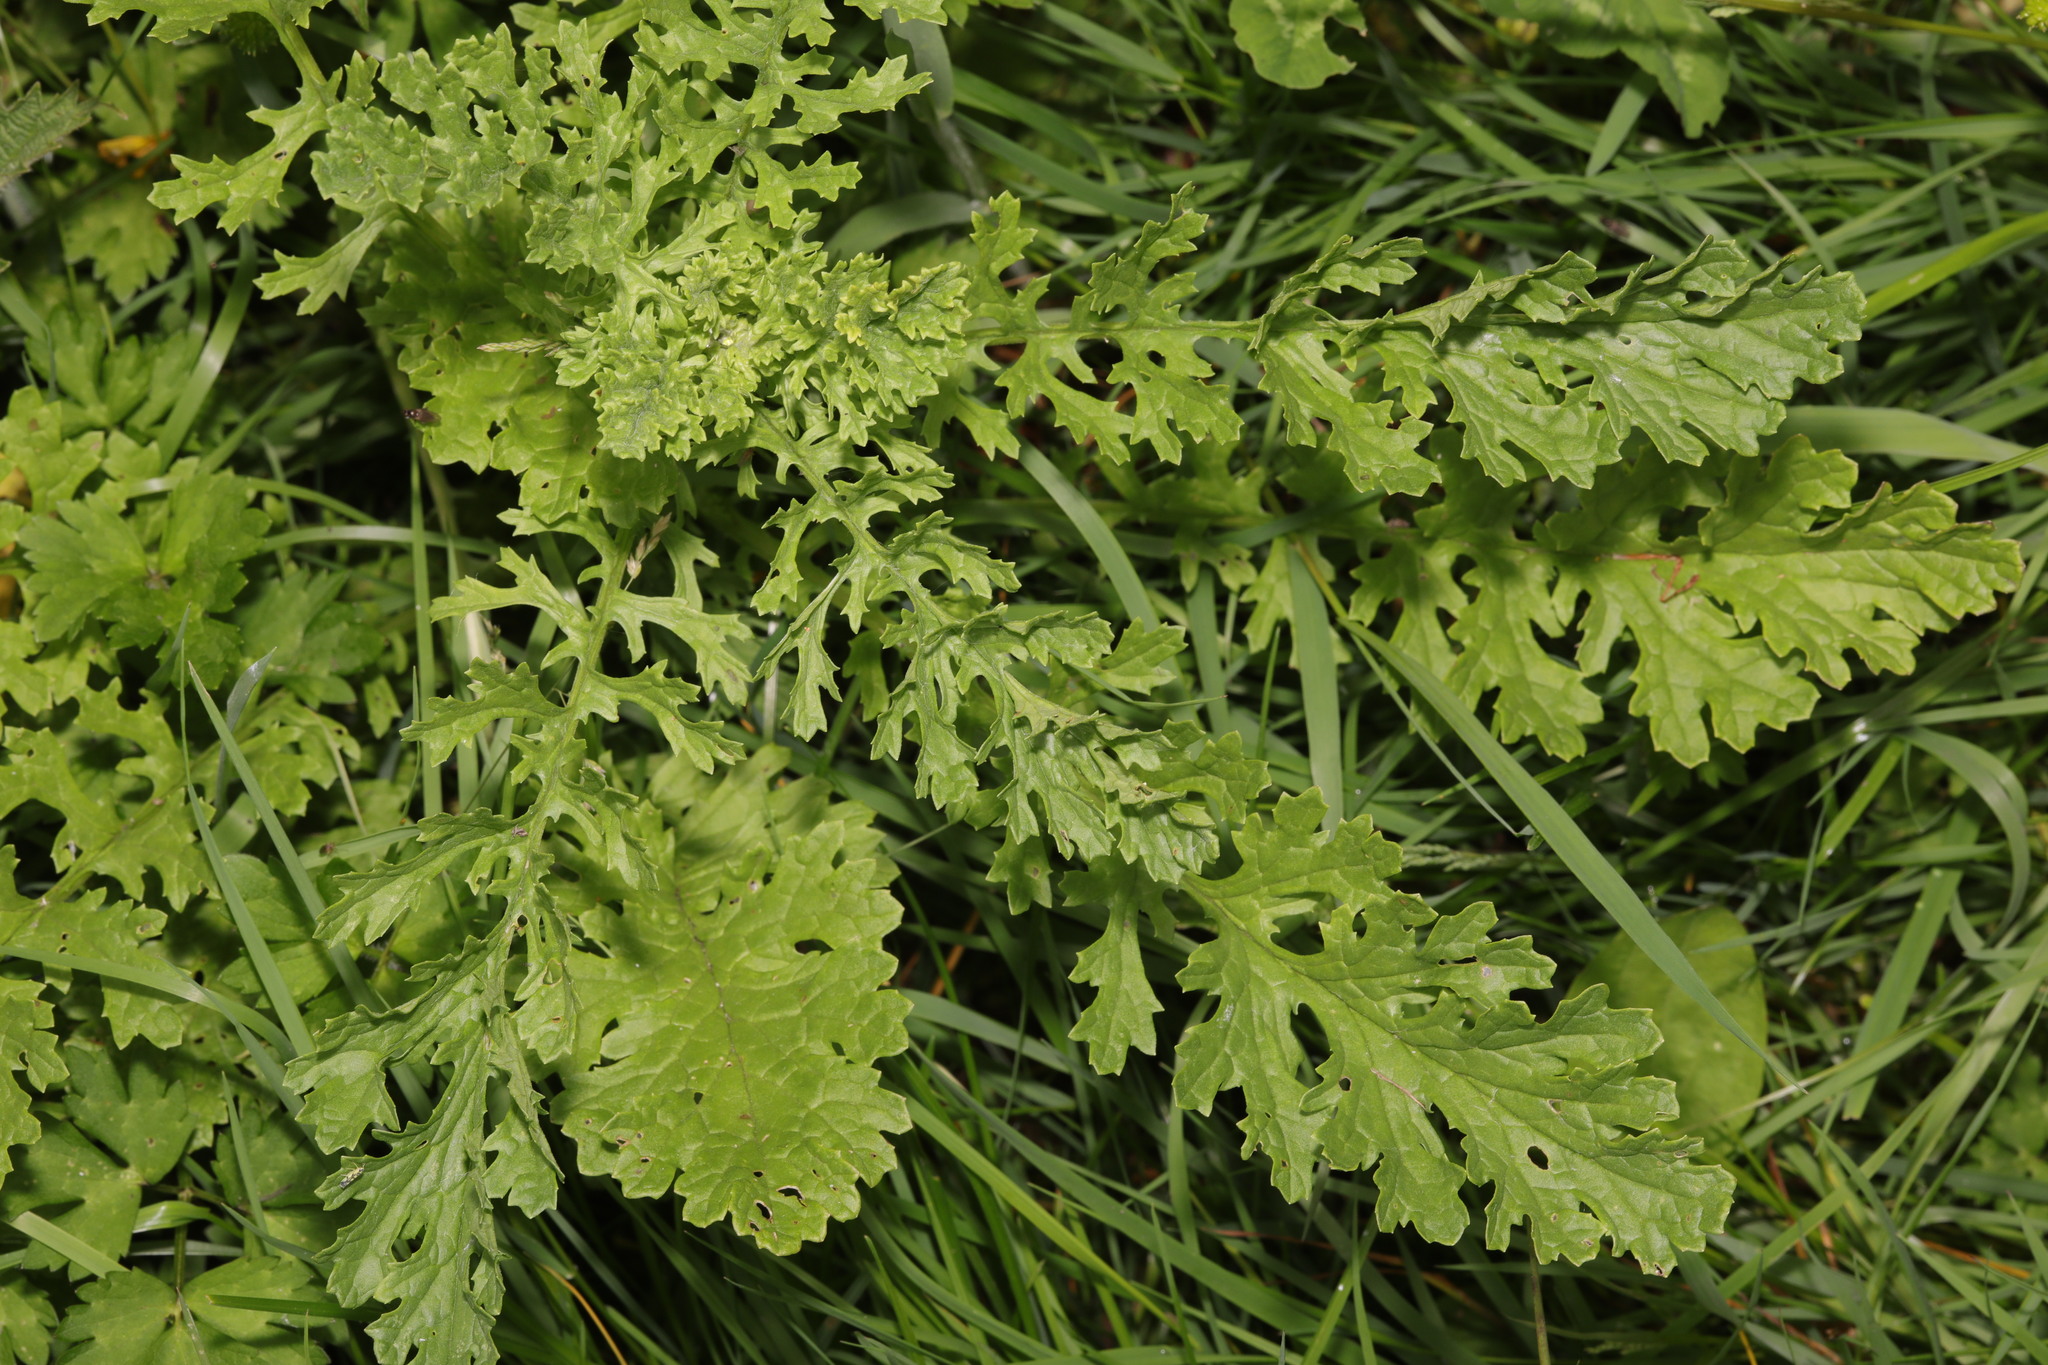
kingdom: Plantae
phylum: Tracheophyta
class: Magnoliopsida
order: Asterales
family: Asteraceae
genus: Jacobaea
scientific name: Jacobaea vulgaris
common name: Stinking willie
